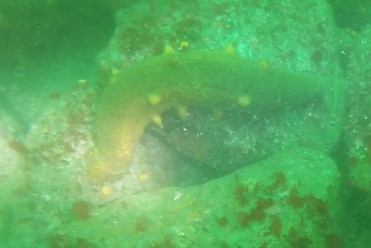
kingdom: Animalia
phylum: Echinodermata
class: Holothuroidea
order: Synallactida
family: Stichopodidae
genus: Apostichopus
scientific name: Apostichopus parvimensis
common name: Warty sea cucumber
